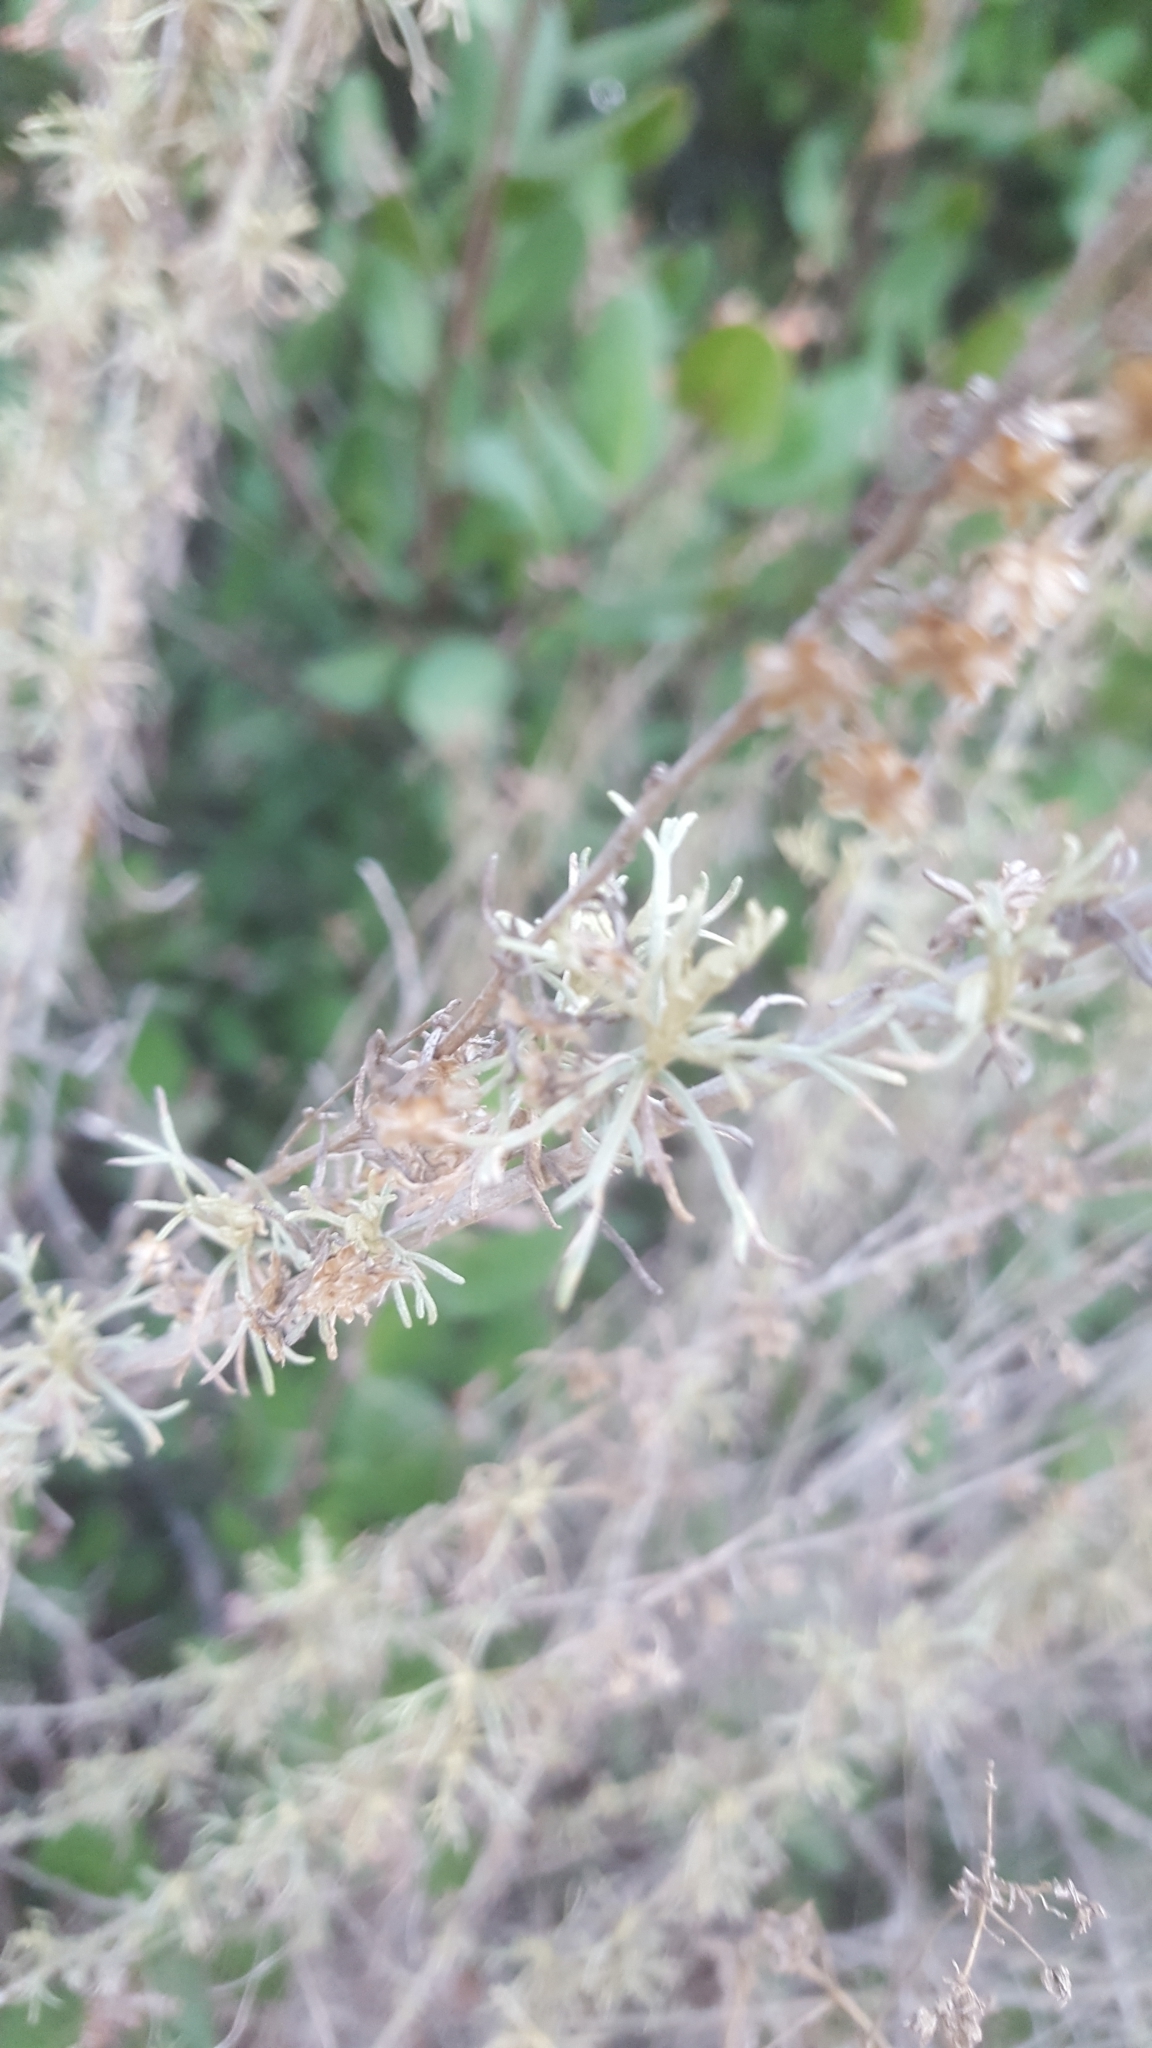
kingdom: Plantae
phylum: Tracheophyta
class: Magnoliopsida
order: Asterales
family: Asteraceae
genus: Artemisia
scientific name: Artemisia californica
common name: California sagebrush
